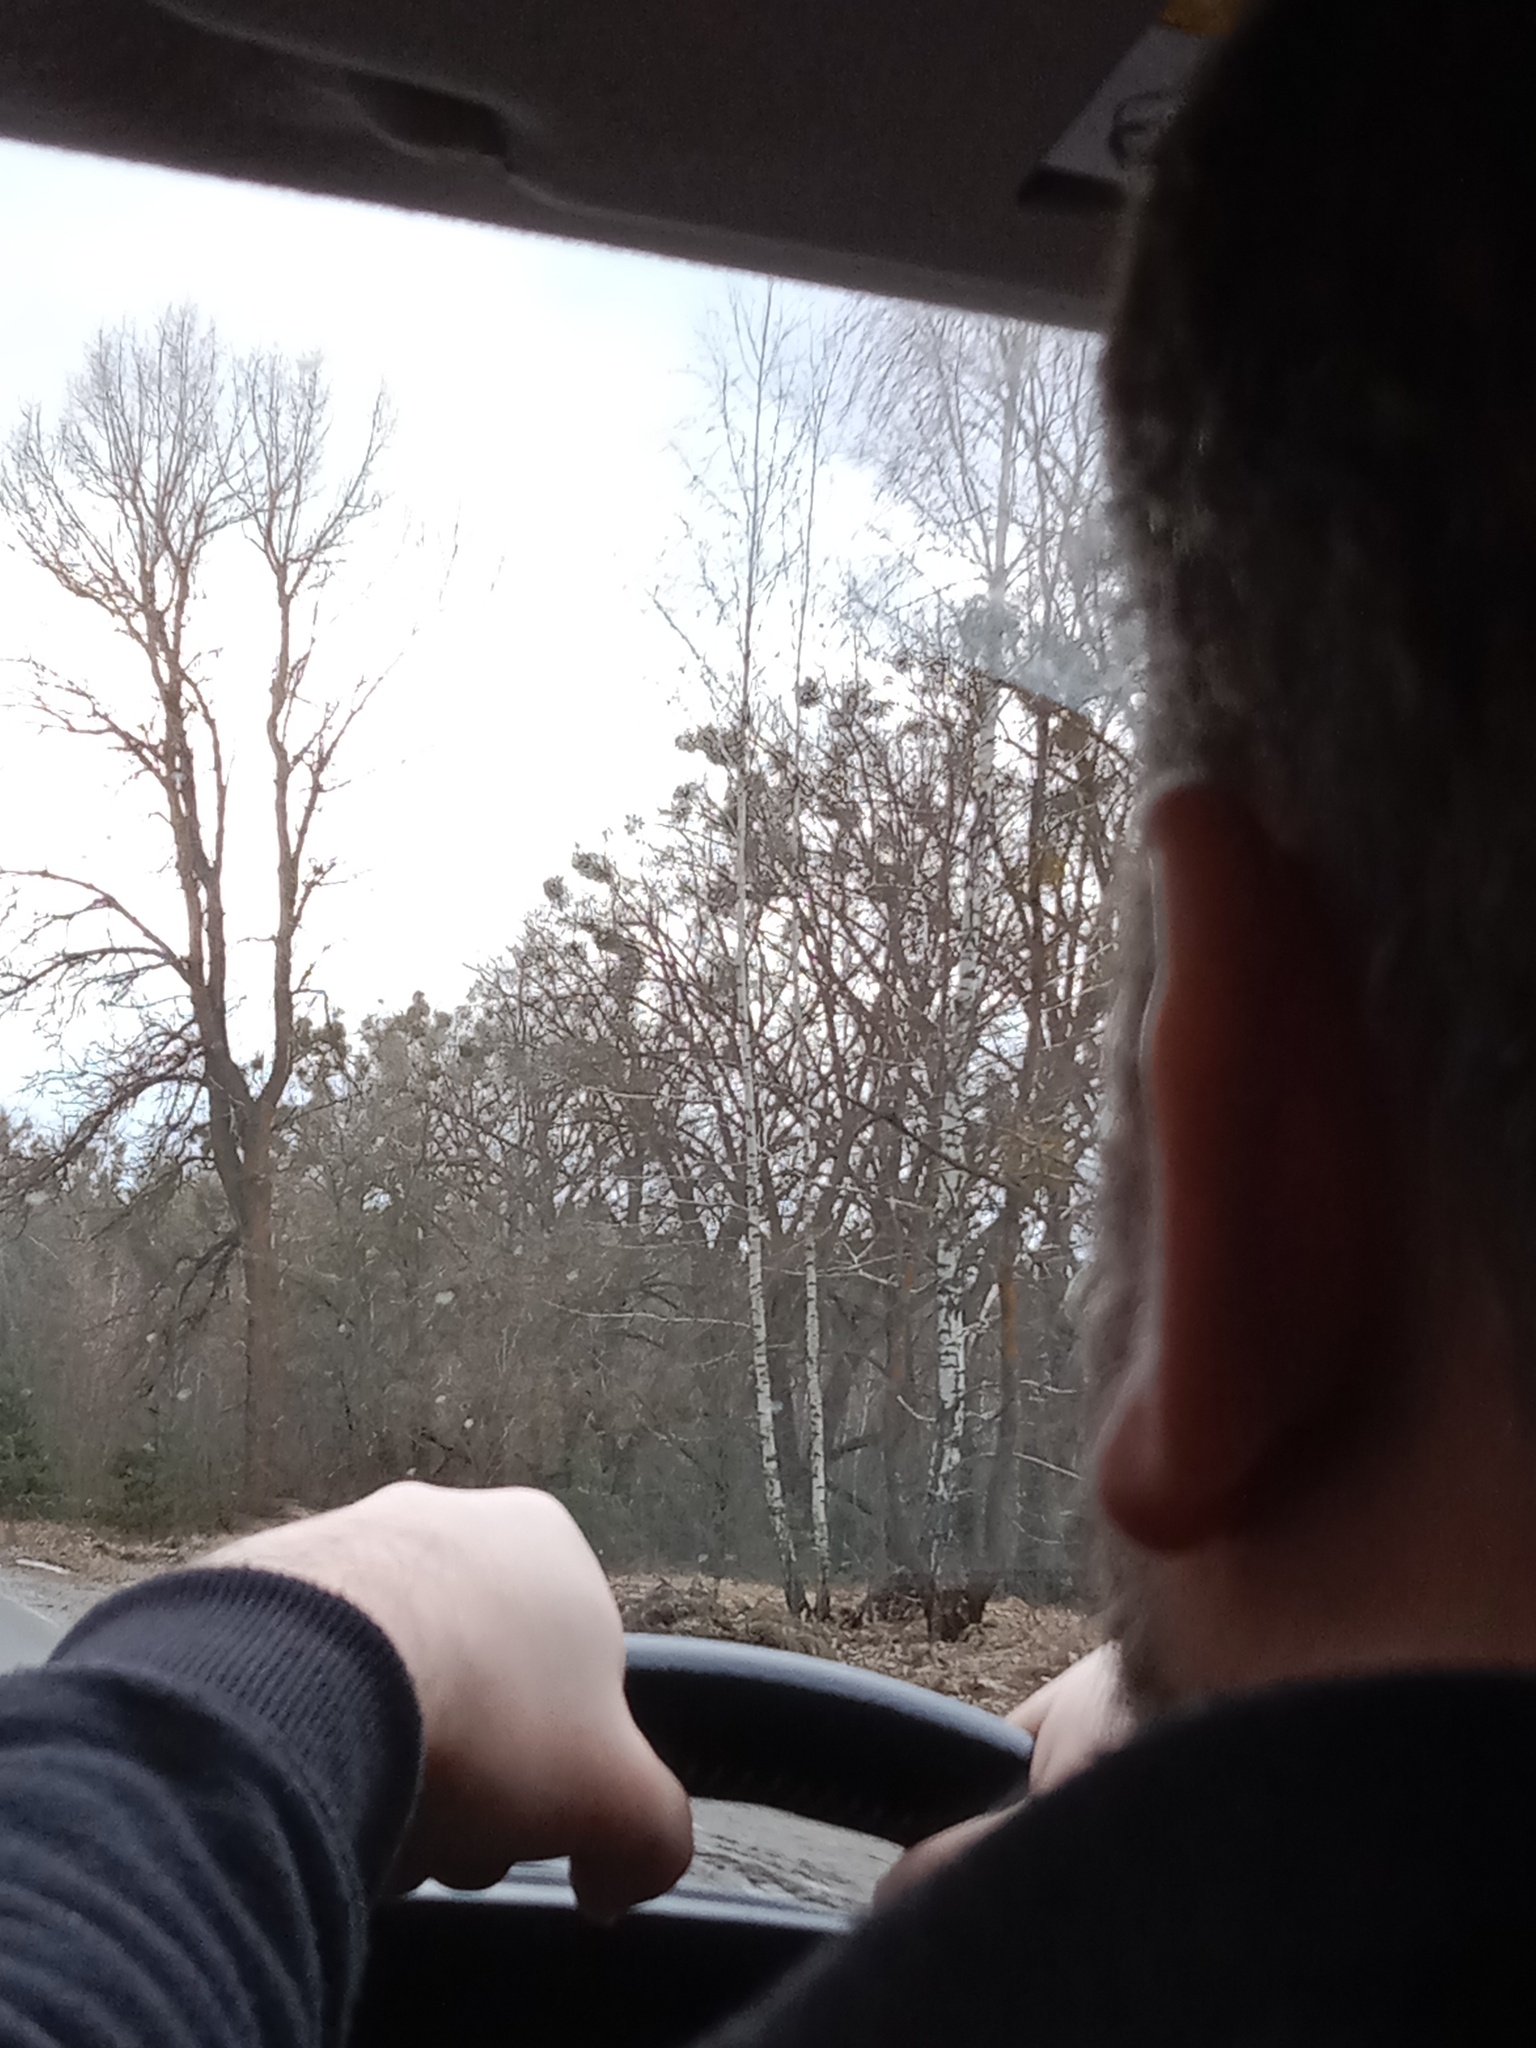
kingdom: Plantae
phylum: Tracheophyta
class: Magnoliopsida
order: Santalales
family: Viscaceae
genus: Viscum
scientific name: Viscum album
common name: Mistletoe
